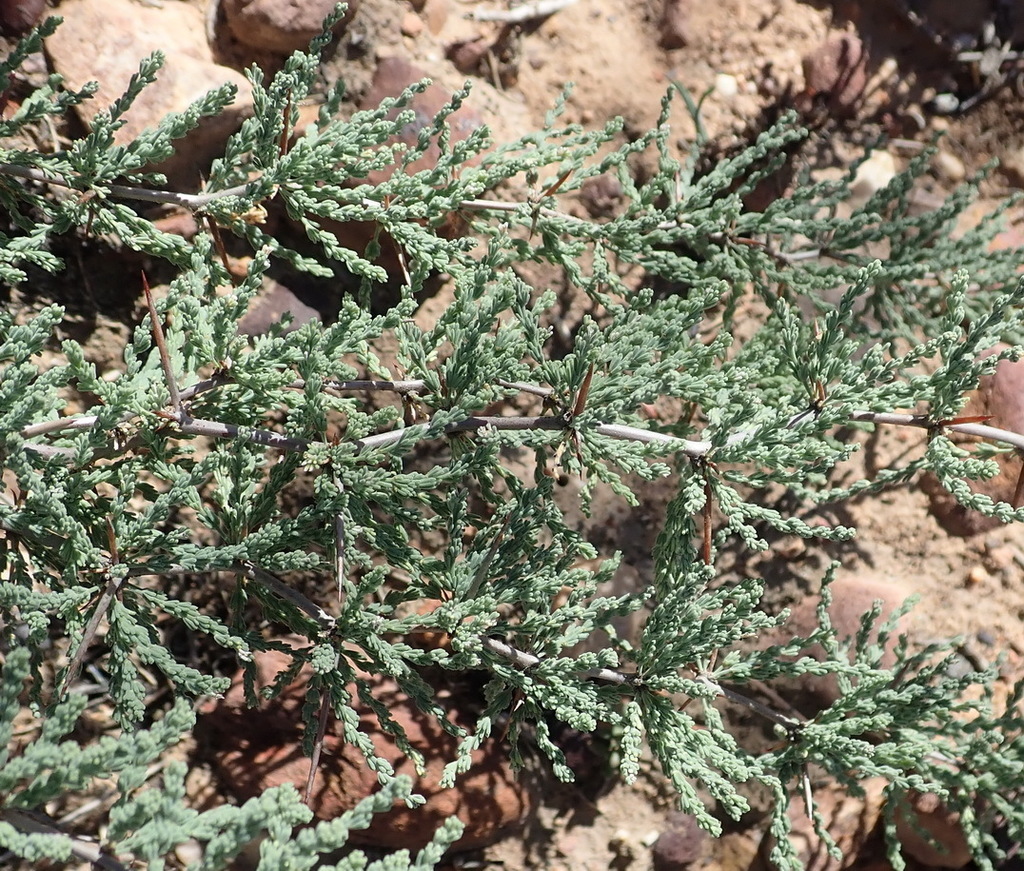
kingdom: Plantae
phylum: Tracheophyta
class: Liliopsida
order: Asparagales
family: Asparagaceae
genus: Asparagus
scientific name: Asparagus capensis
